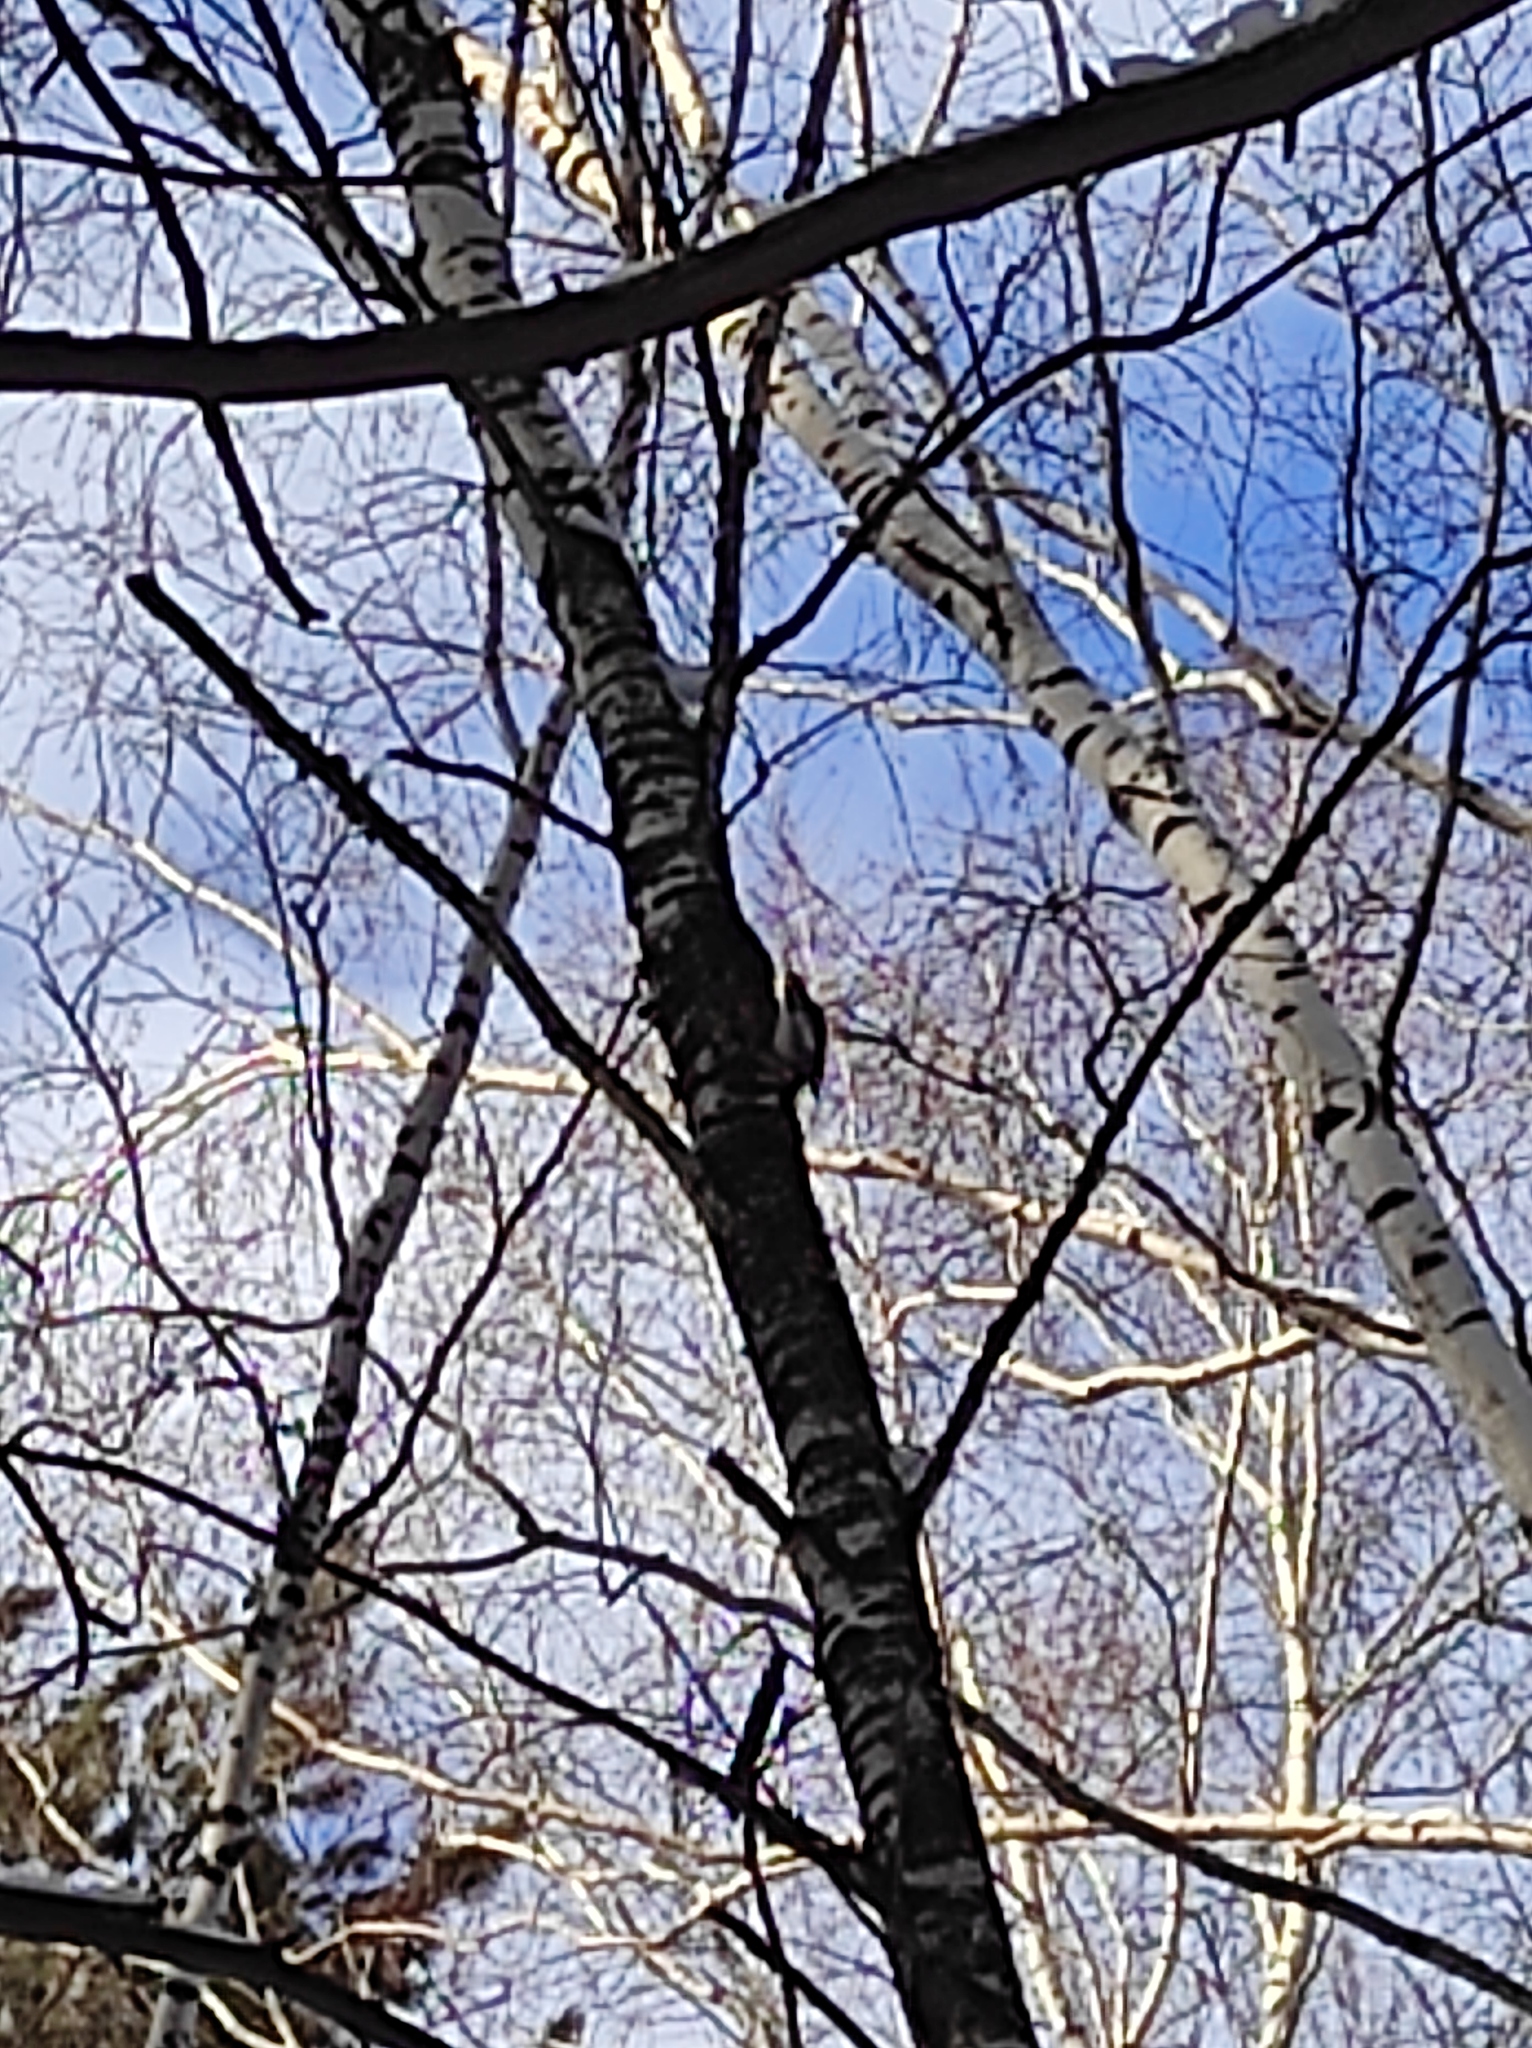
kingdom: Animalia
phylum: Chordata
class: Aves
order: Piciformes
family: Picidae
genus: Dendrocopos
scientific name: Dendrocopos major
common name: Great spotted woodpecker
